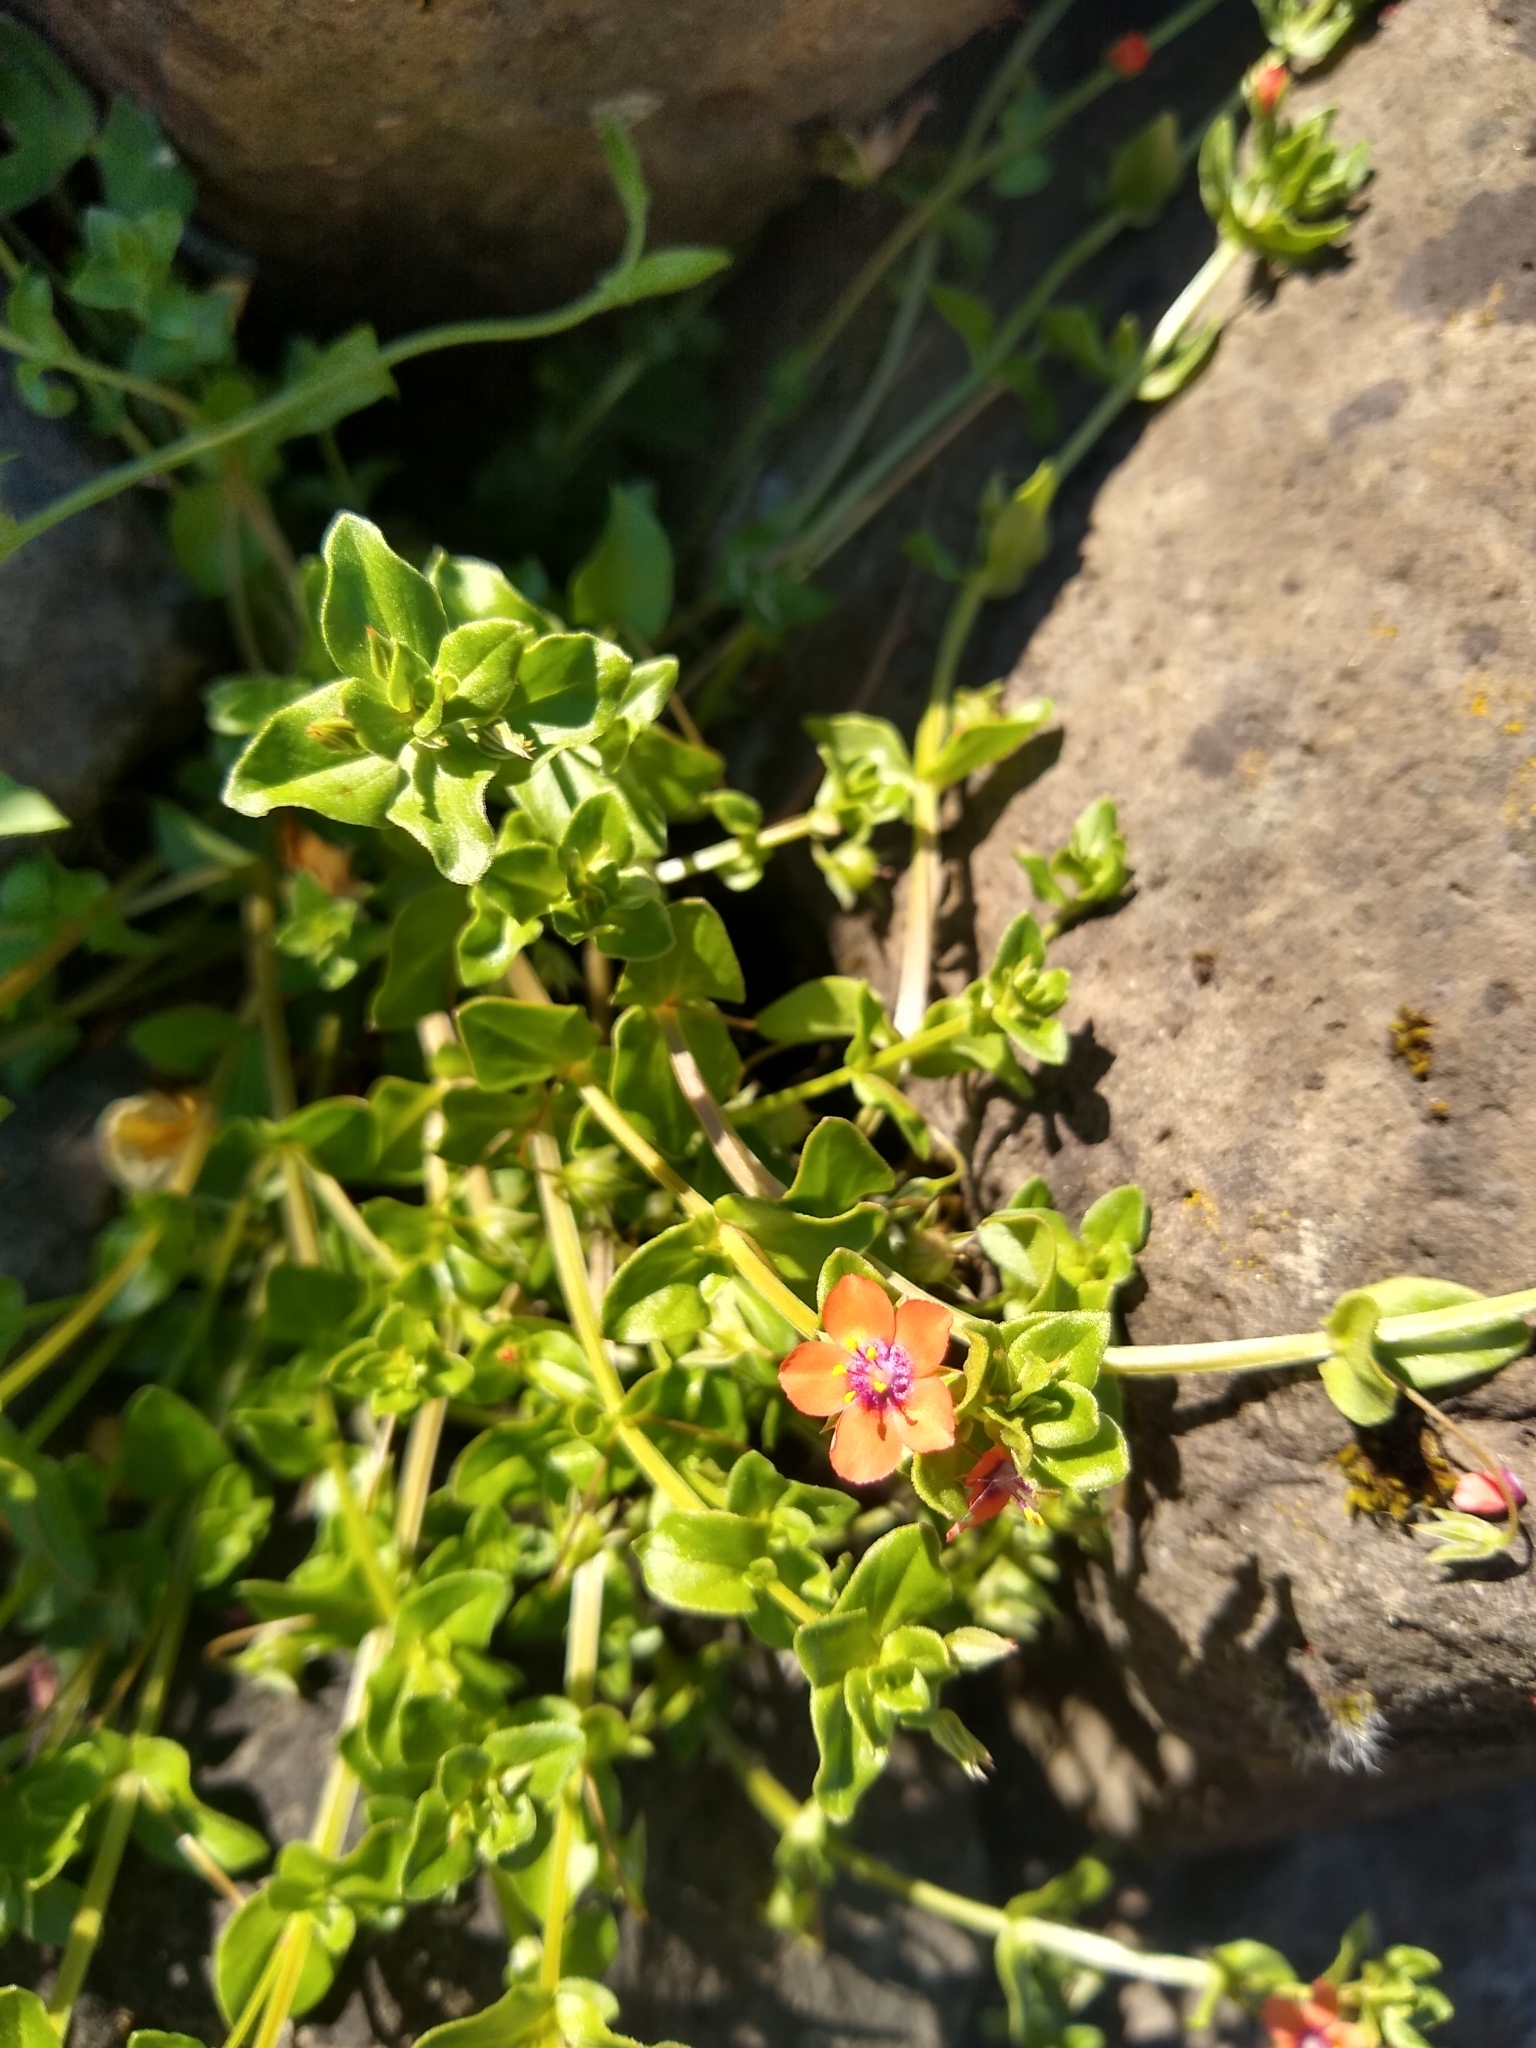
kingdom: Plantae
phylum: Tracheophyta
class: Magnoliopsida
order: Ericales
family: Primulaceae
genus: Lysimachia
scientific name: Lysimachia arvensis
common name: Scarlet pimpernel
